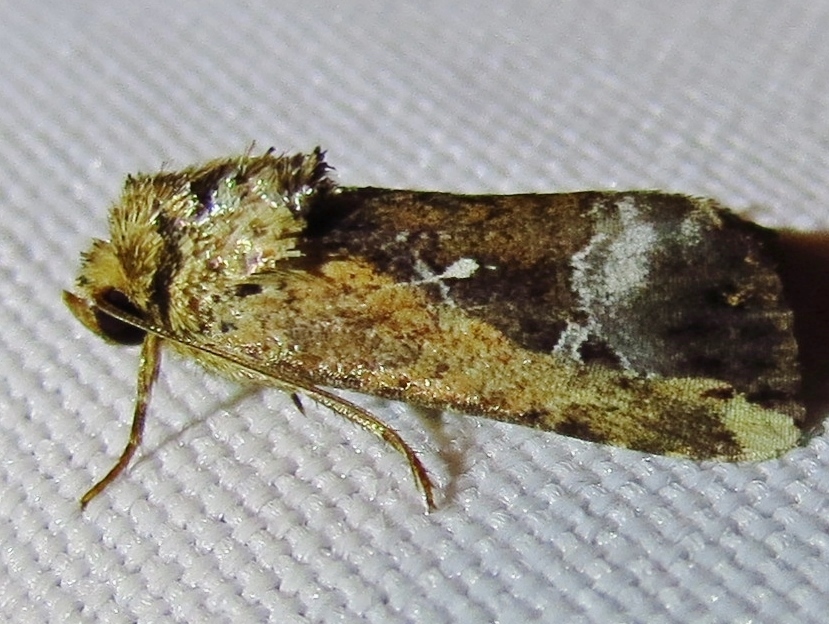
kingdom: Animalia
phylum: Arthropoda
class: Insecta
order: Lepidoptera
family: Noctuidae
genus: Elaphria
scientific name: Elaphria subobliqua
